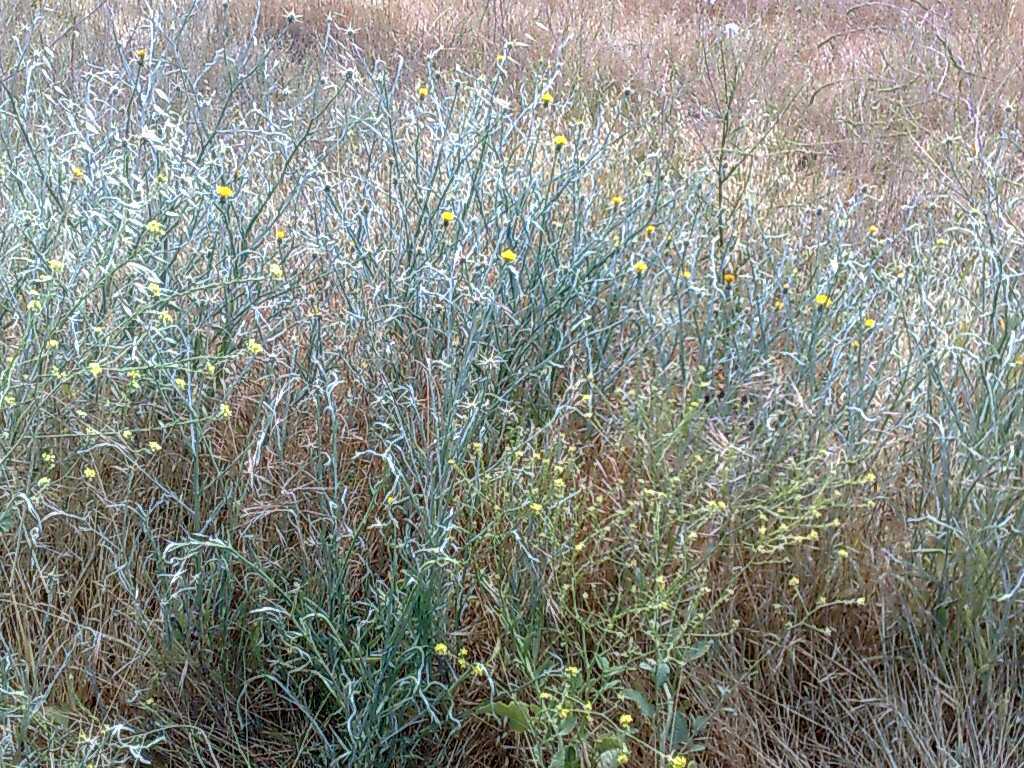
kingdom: Plantae
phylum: Tracheophyta
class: Magnoliopsida
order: Asterales
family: Asteraceae
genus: Centaurea
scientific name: Centaurea solstitialis
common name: Yellow star-thistle
